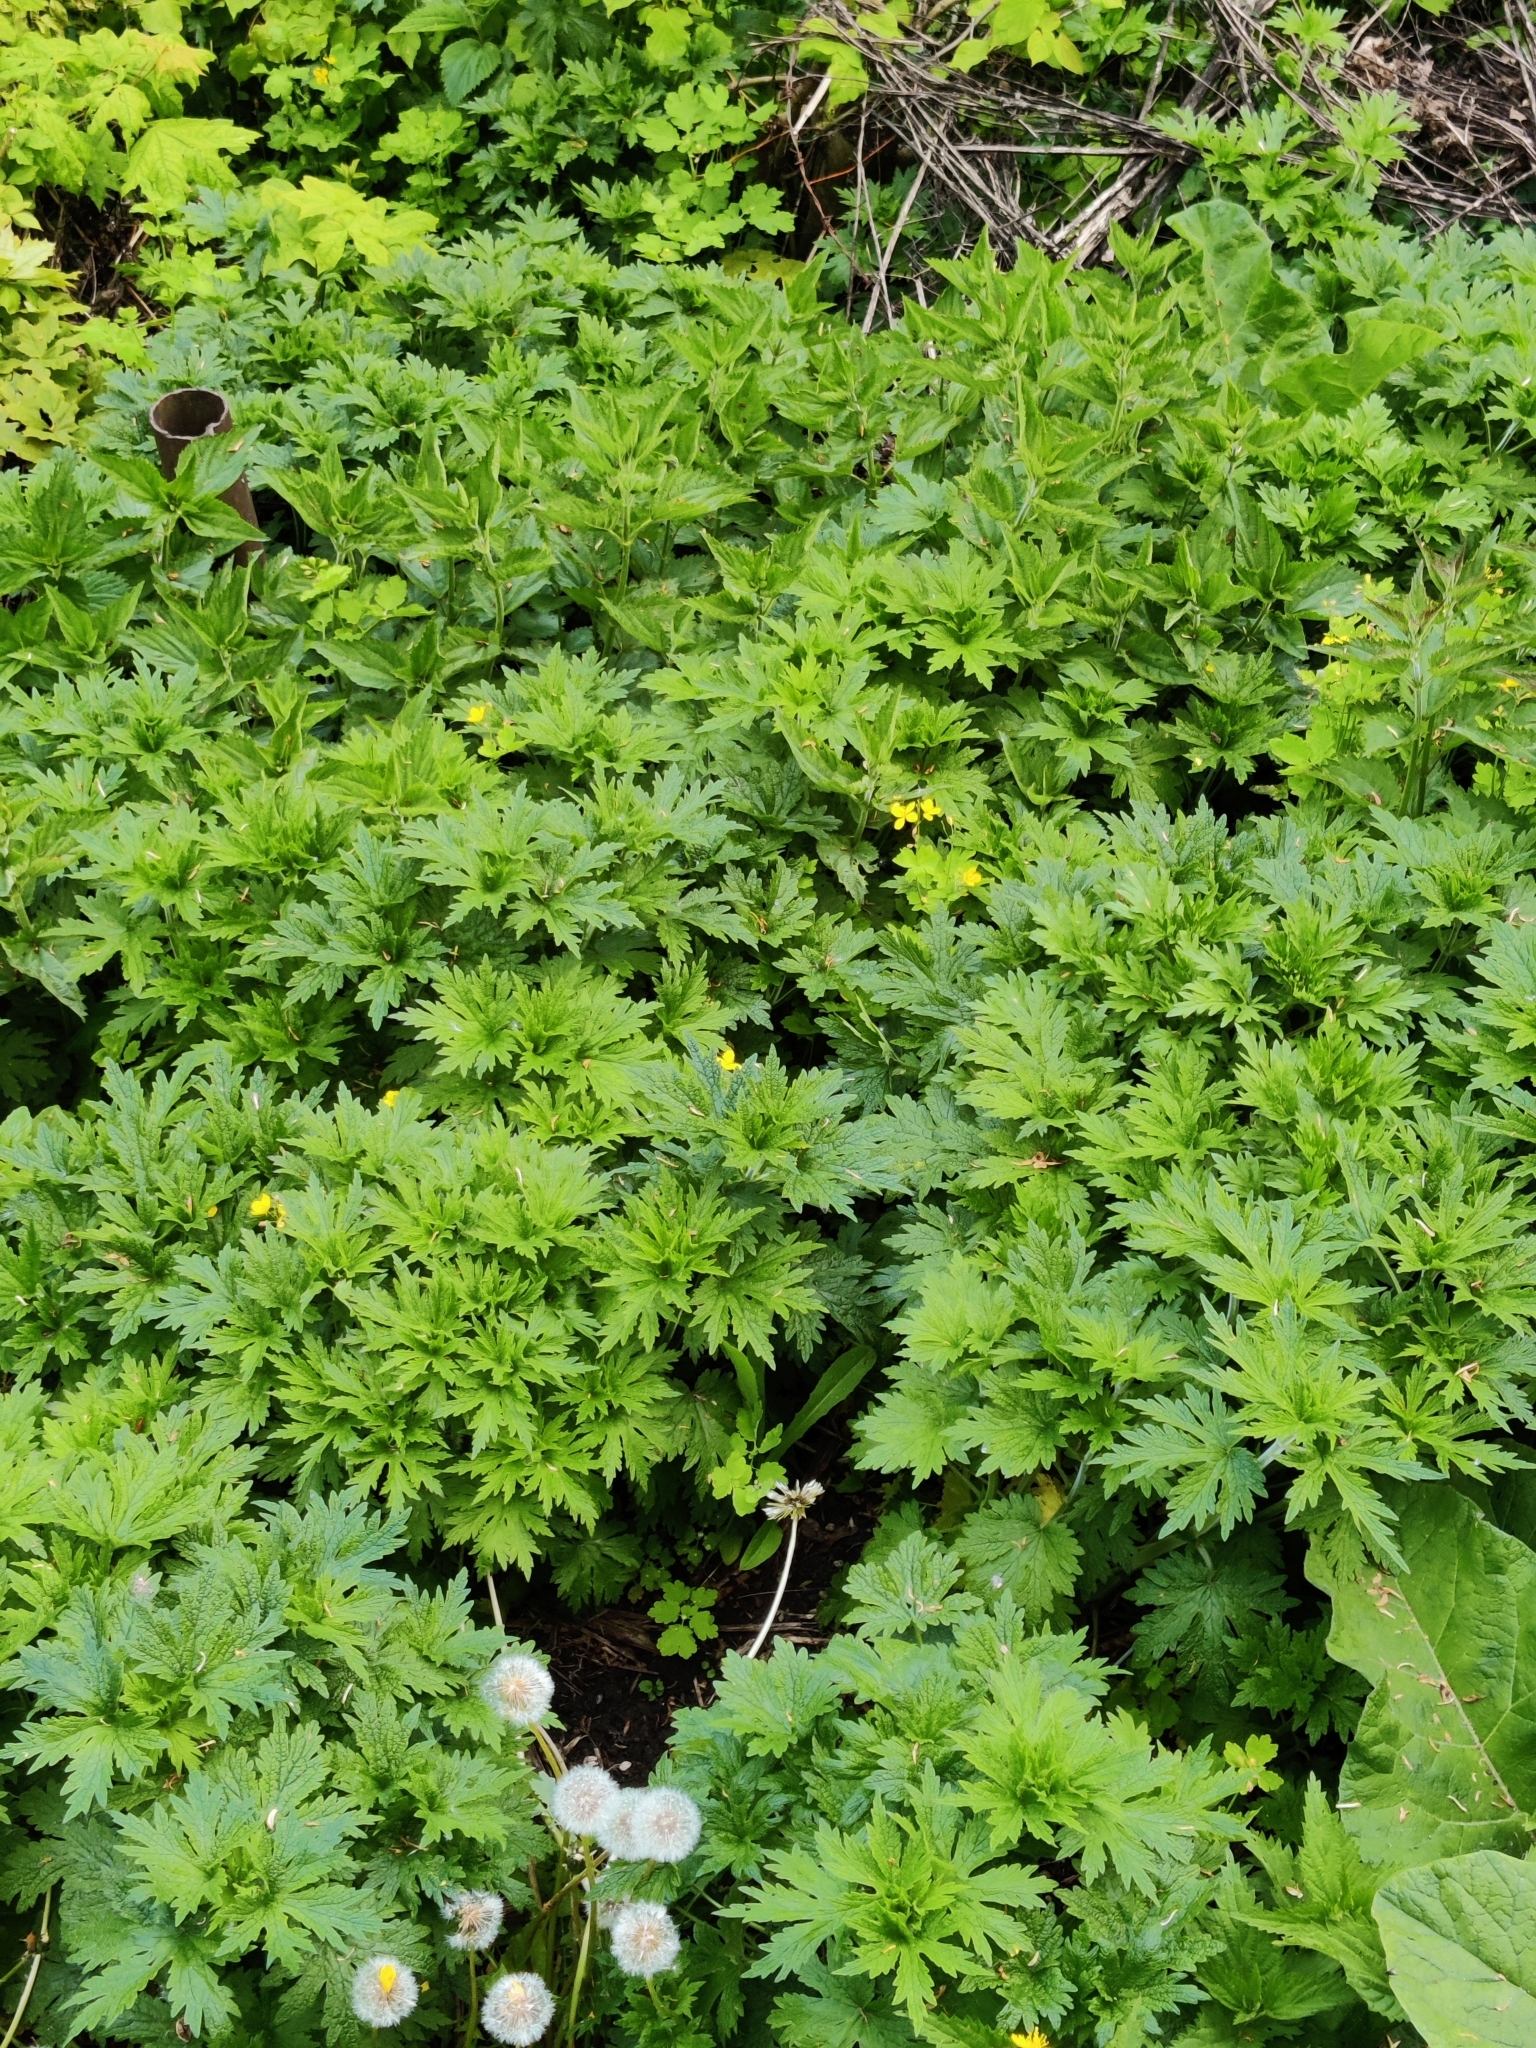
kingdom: Plantae
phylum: Tracheophyta
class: Magnoliopsida
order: Lamiales
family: Lamiaceae
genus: Leonurus
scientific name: Leonurus quinquelobatus
